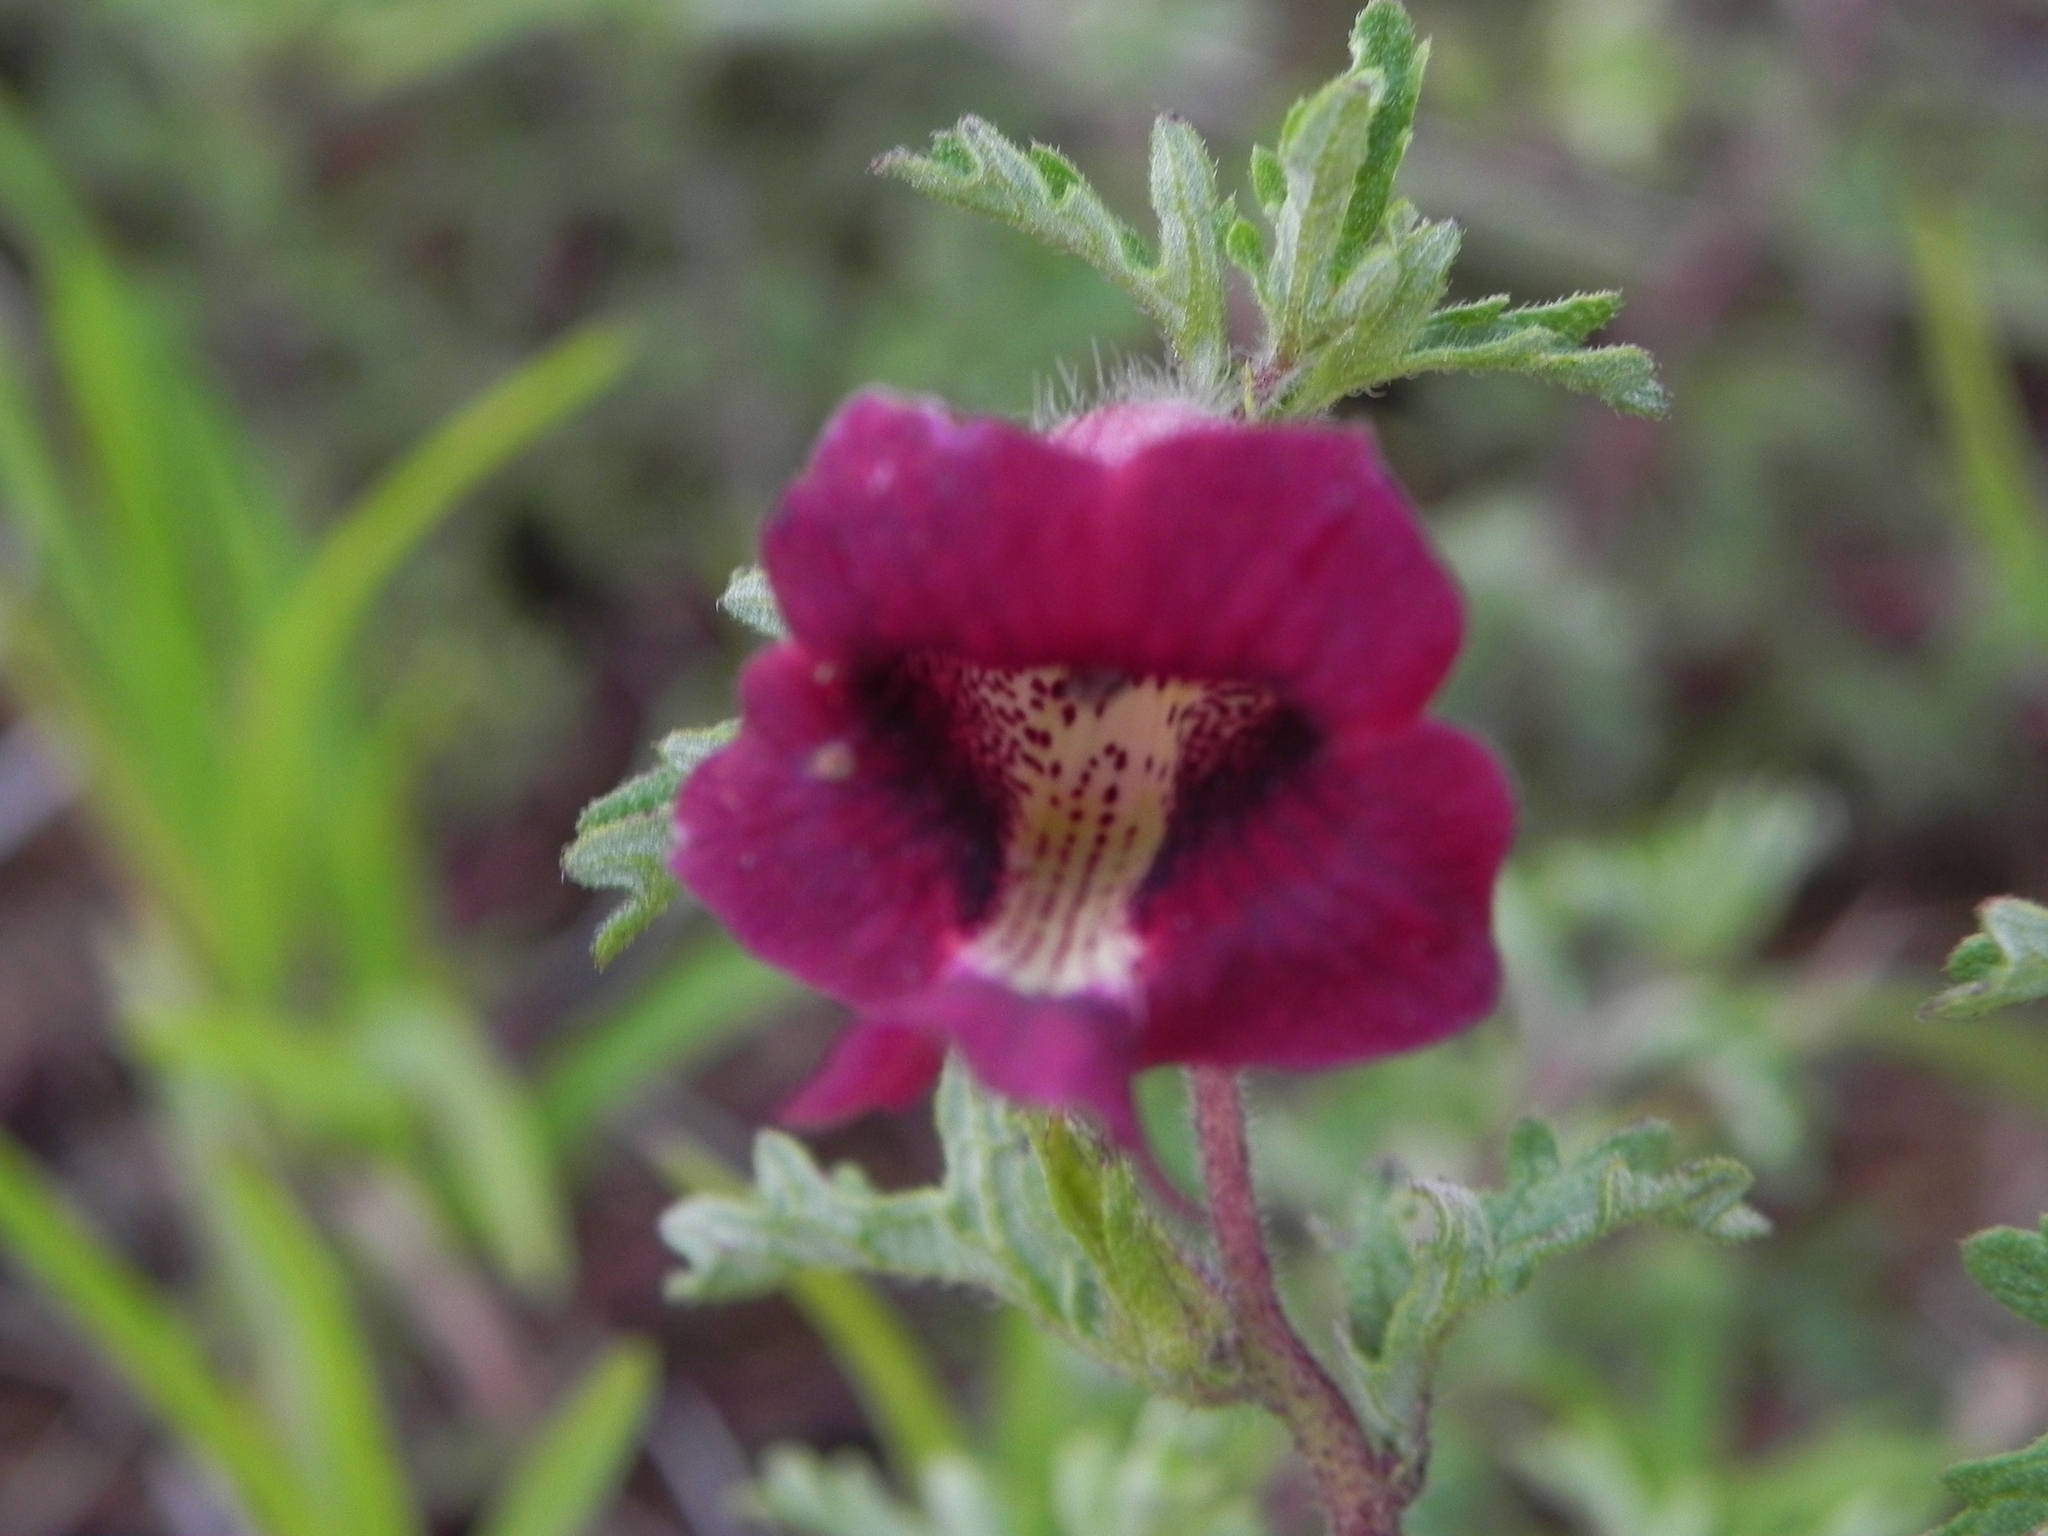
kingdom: Plantae
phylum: Tracheophyta
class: Magnoliopsida
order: Lamiales
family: Pedaliaceae
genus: Sesamum
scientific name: Sesamum prostratum
